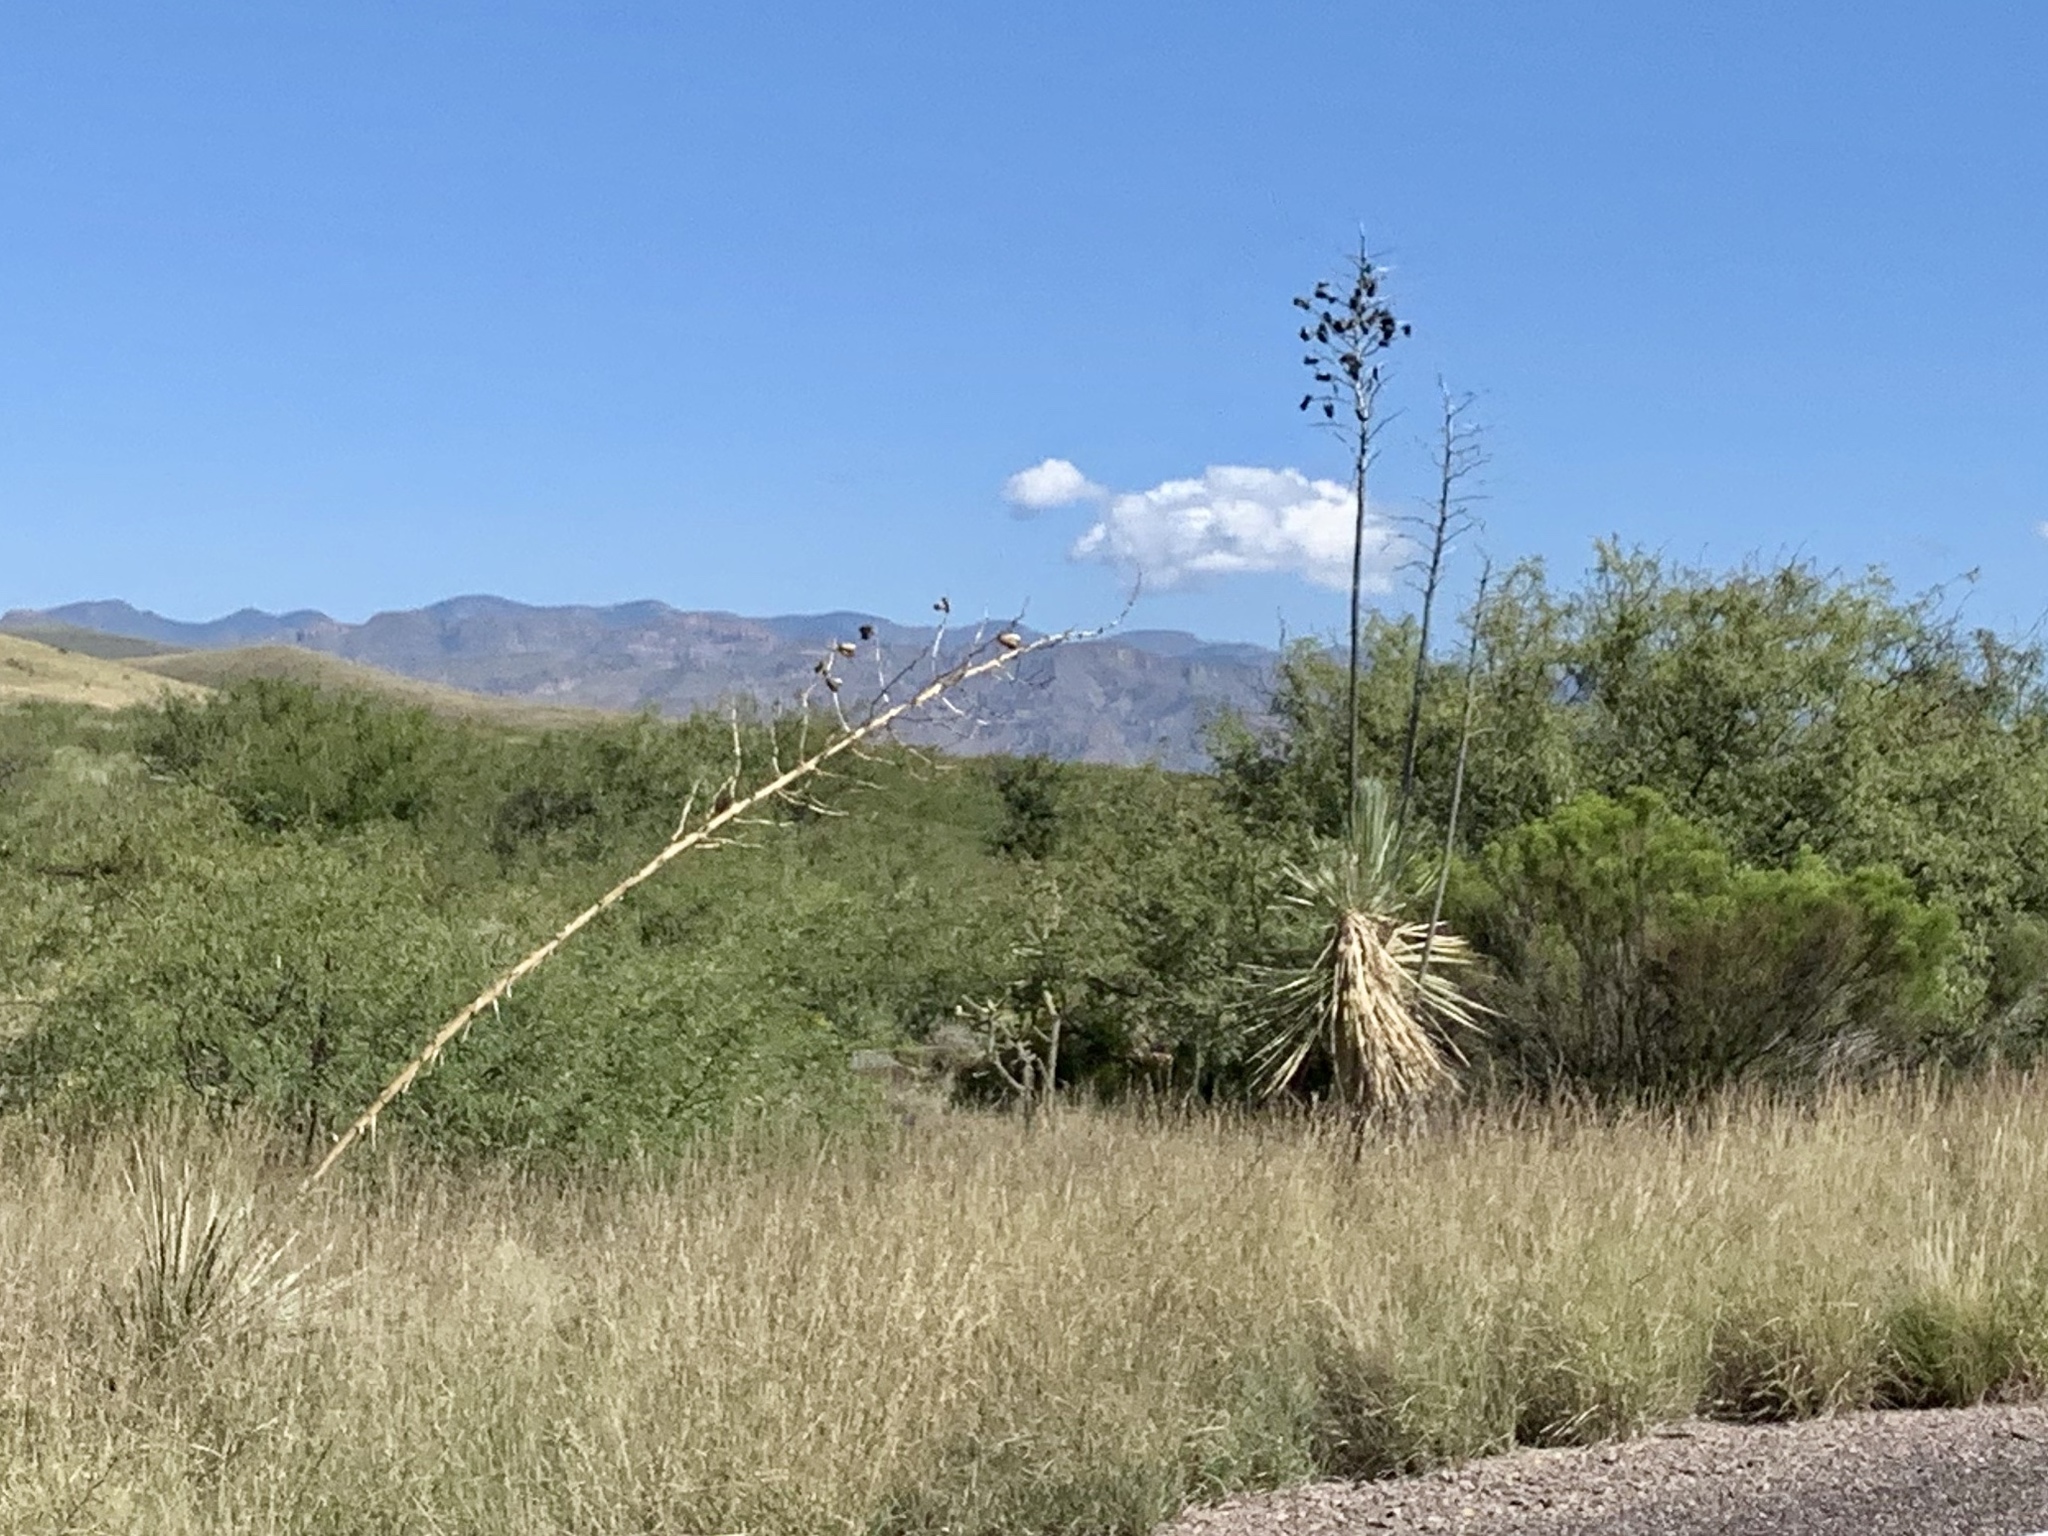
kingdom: Plantae
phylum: Tracheophyta
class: Liliopsida
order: Asparagales
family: Asparagaceae
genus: Yucca
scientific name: Yucca elata
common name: Palmella
